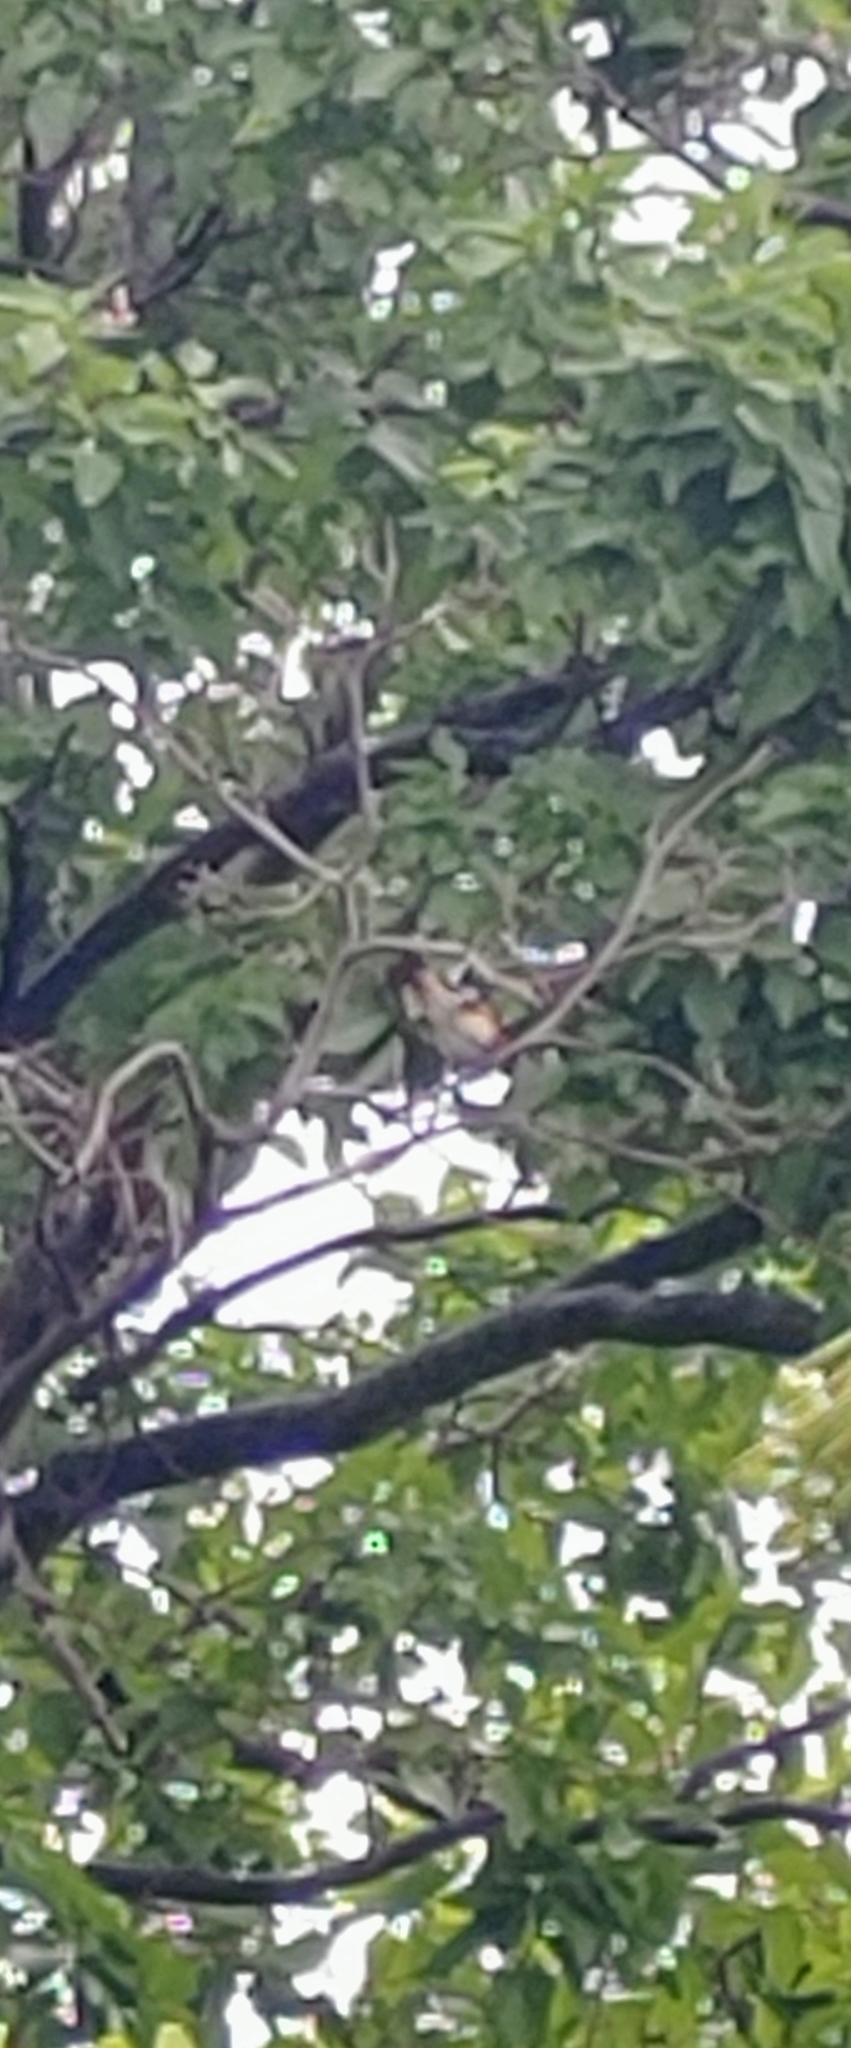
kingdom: Animalia
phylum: Chordata
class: Aves
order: Passeriformes
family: Parulidae
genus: Setophaga
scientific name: Setophaga ruticilla
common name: American redstart
